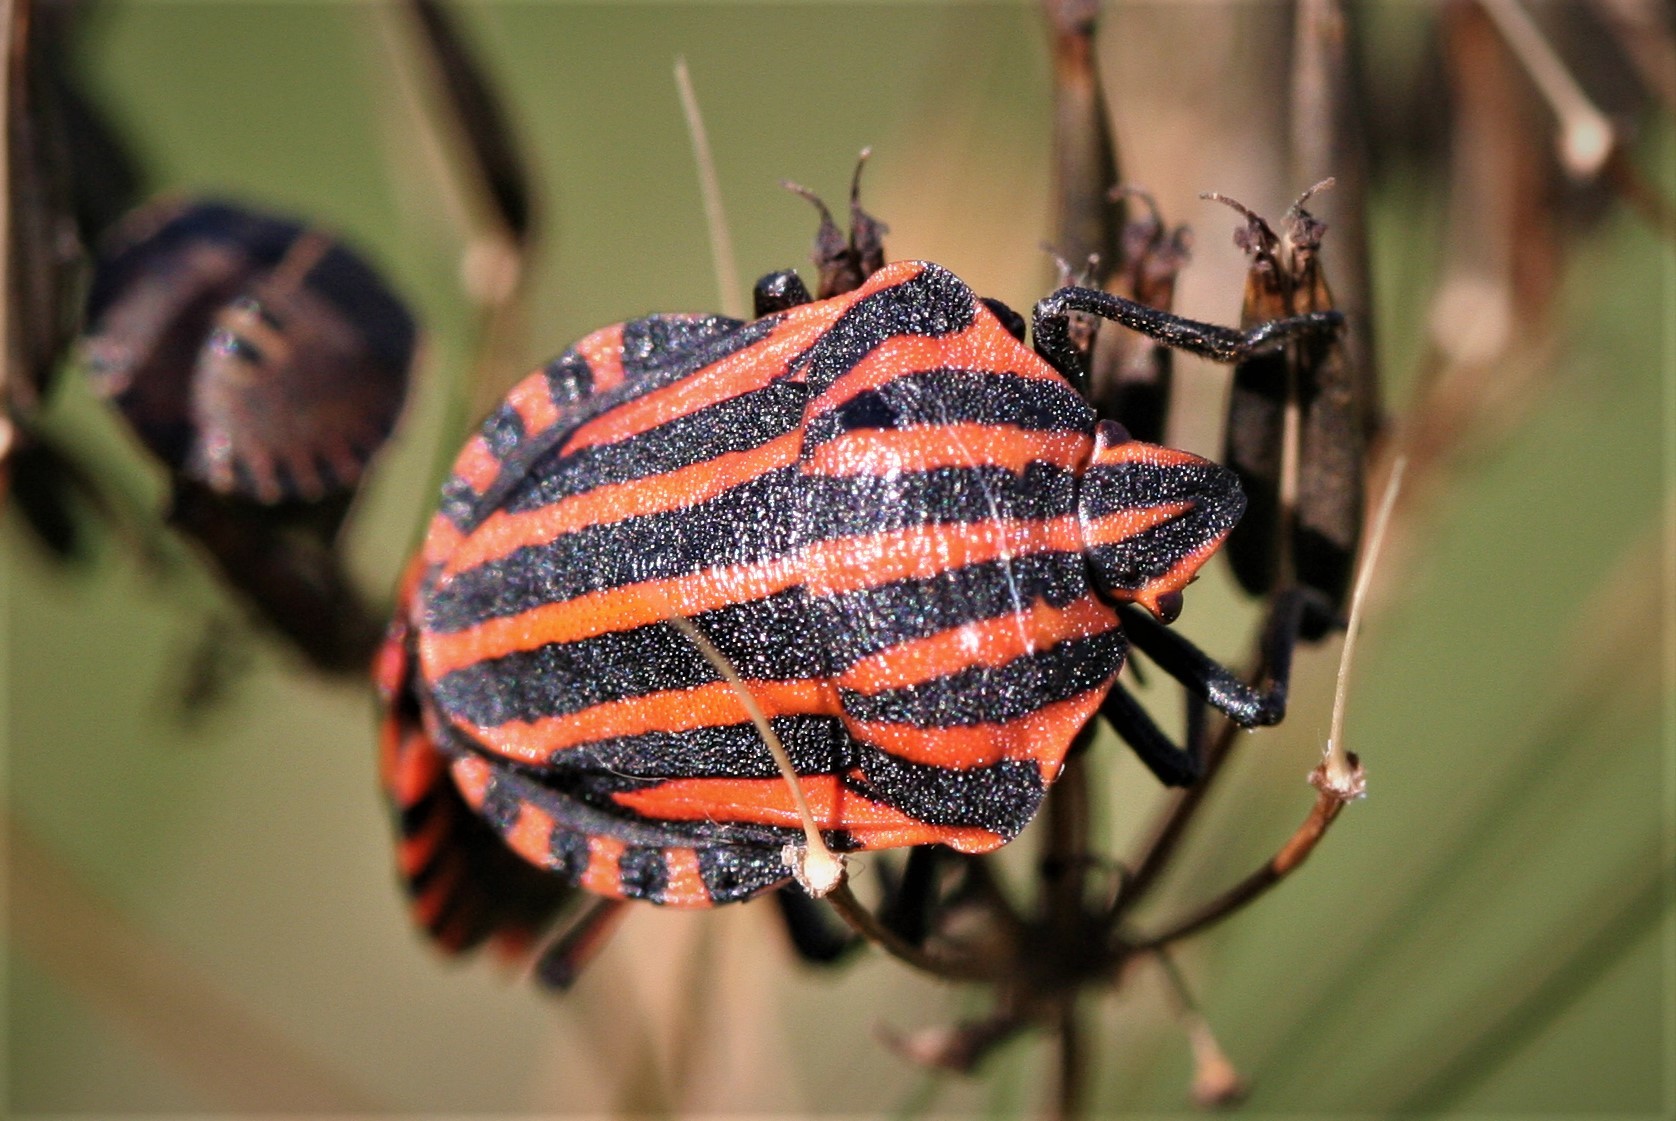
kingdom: Animalia
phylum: Arthropoda
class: Insecta
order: Hemiptera
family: Pentatomidae
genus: Graphosoma
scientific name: Graphosoma italicum
